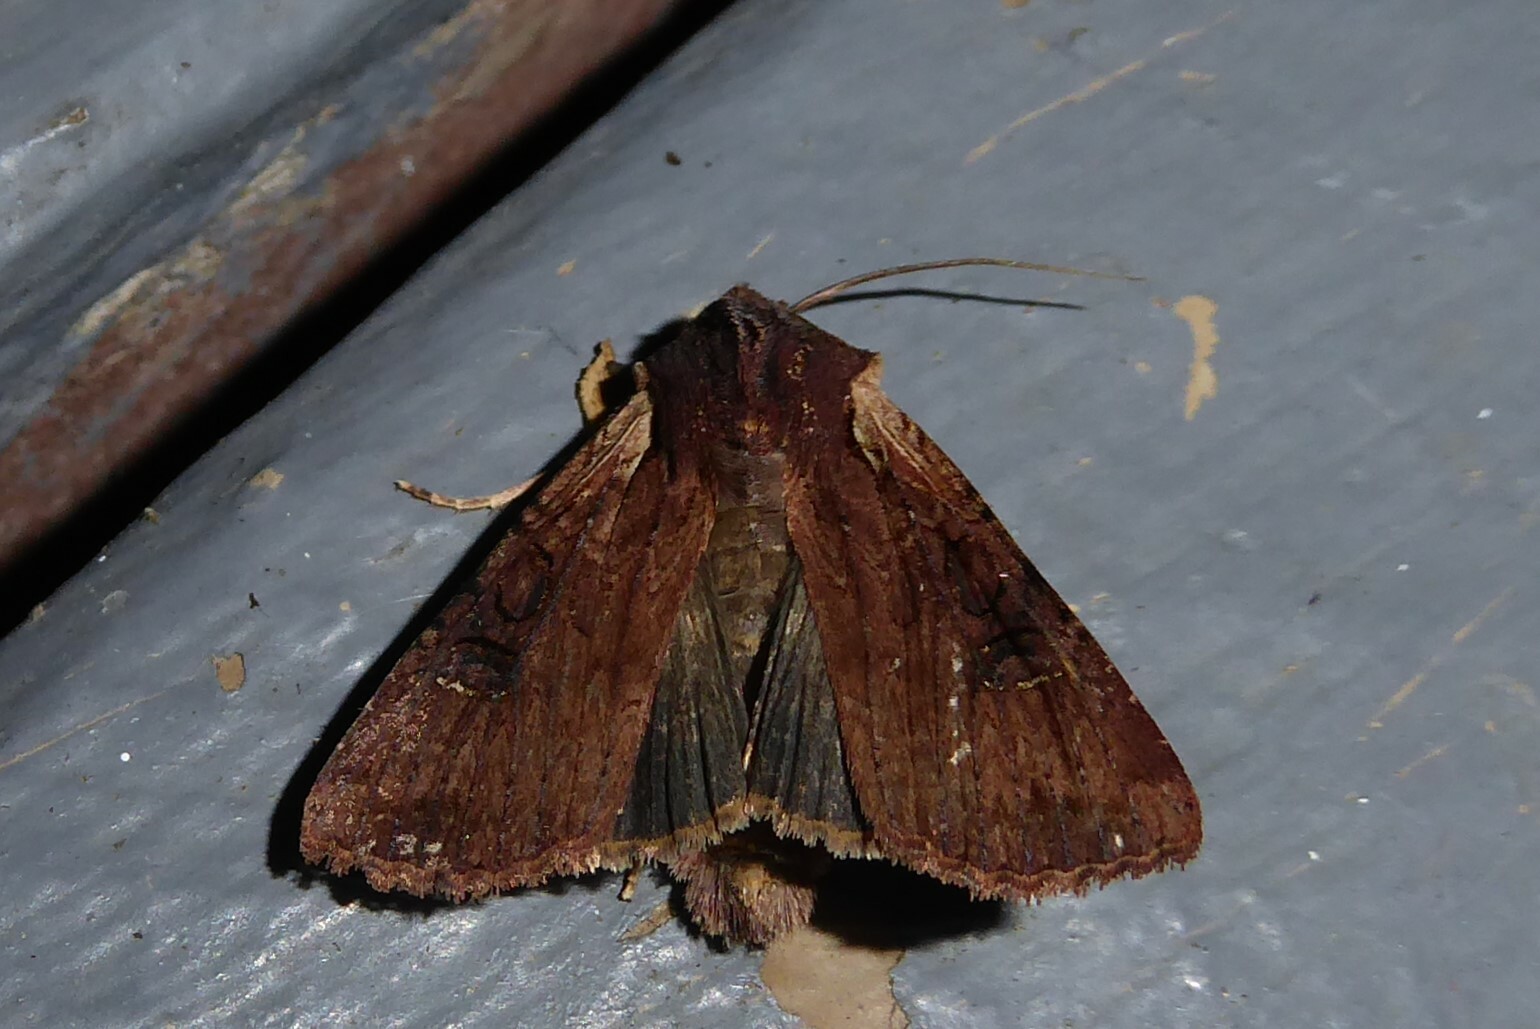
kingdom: Animalia
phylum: Arthropoda
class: Insecta
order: Lepidoptera
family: Noctuidae
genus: Ichneutica
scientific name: Ichneutica omoplaca
